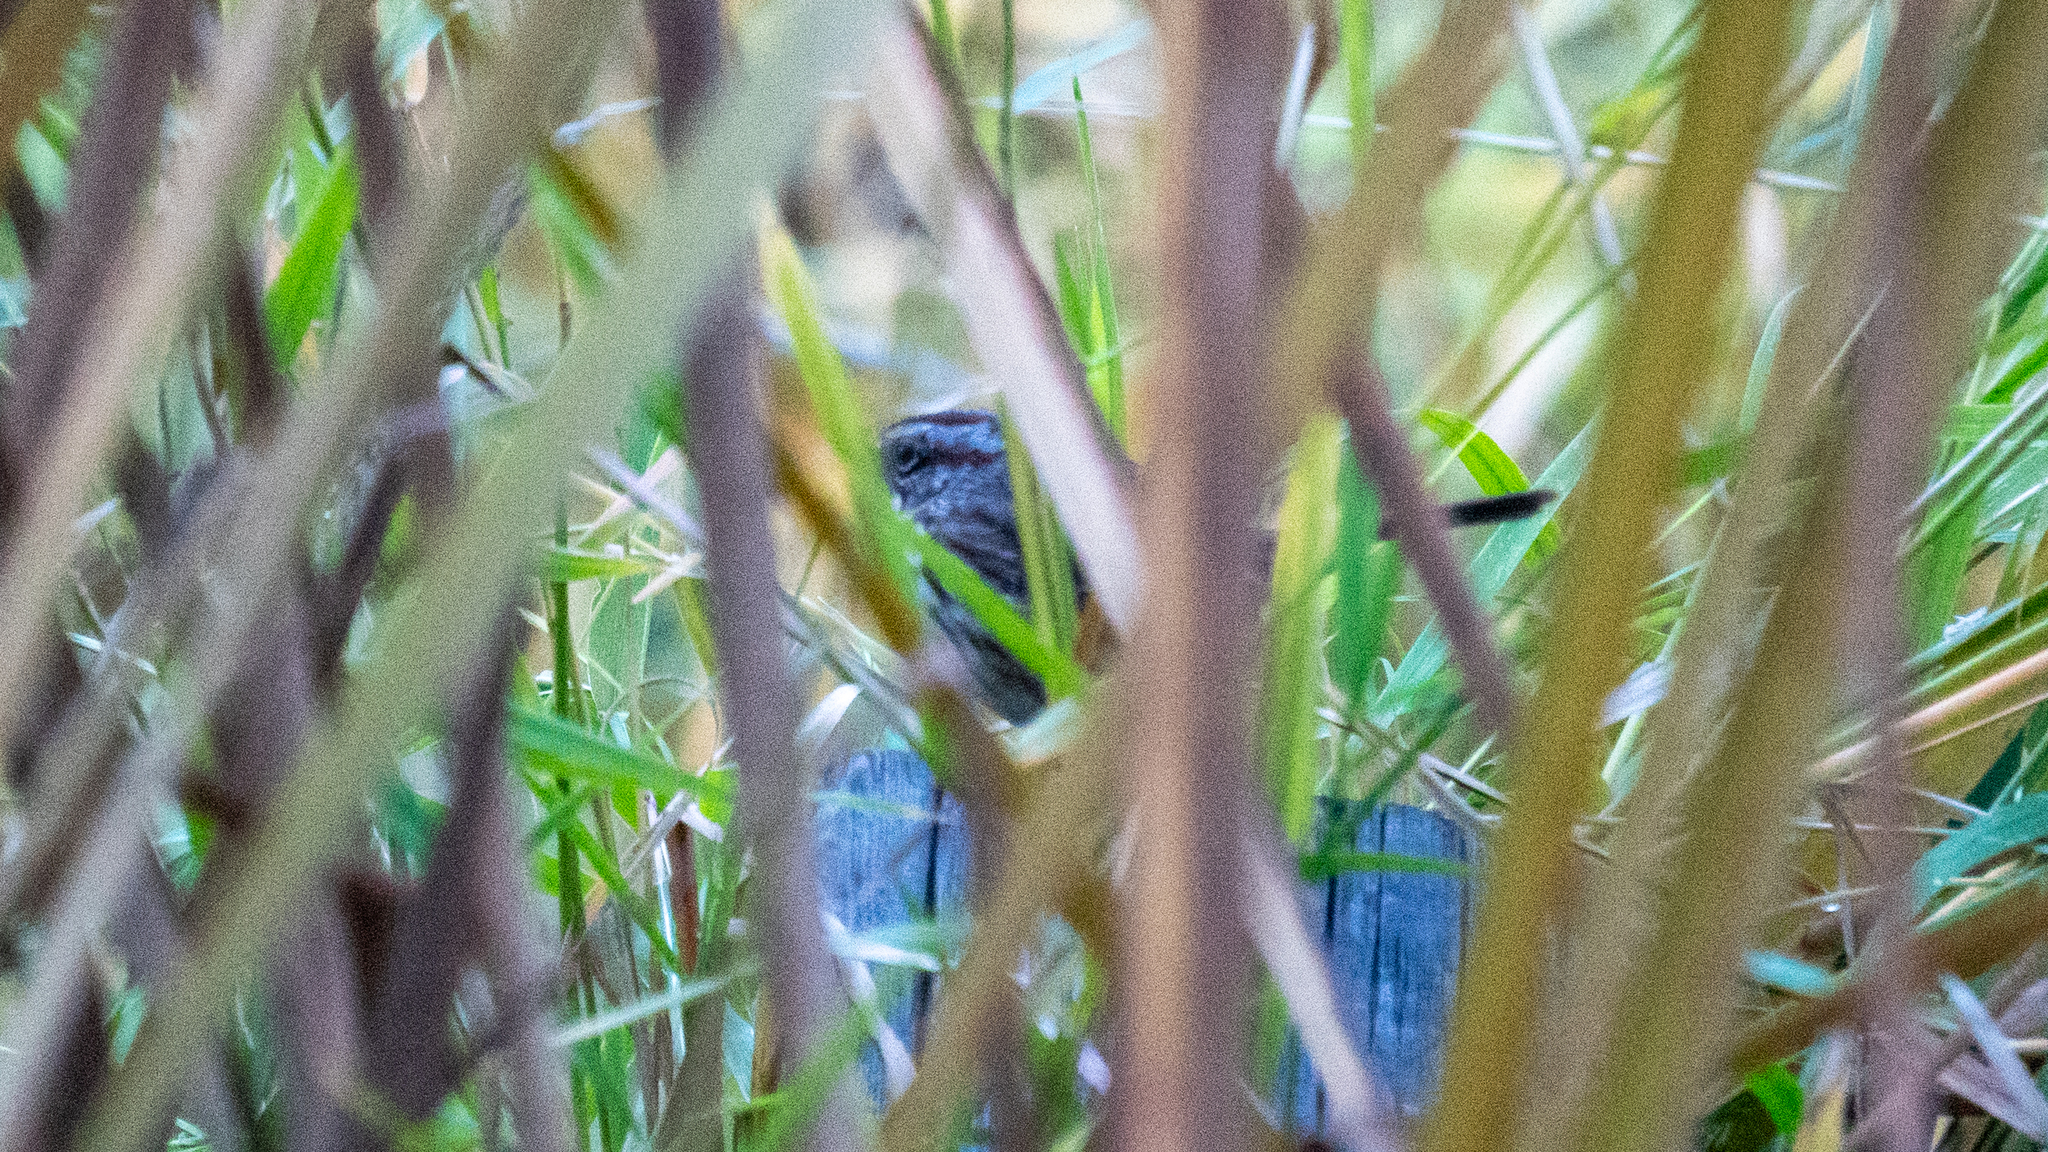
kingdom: Animalia
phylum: Chordata
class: Aves
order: Passeriformes
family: Passerellidae
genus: Melospiza
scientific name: Melospiza melodia
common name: Song sparrow
